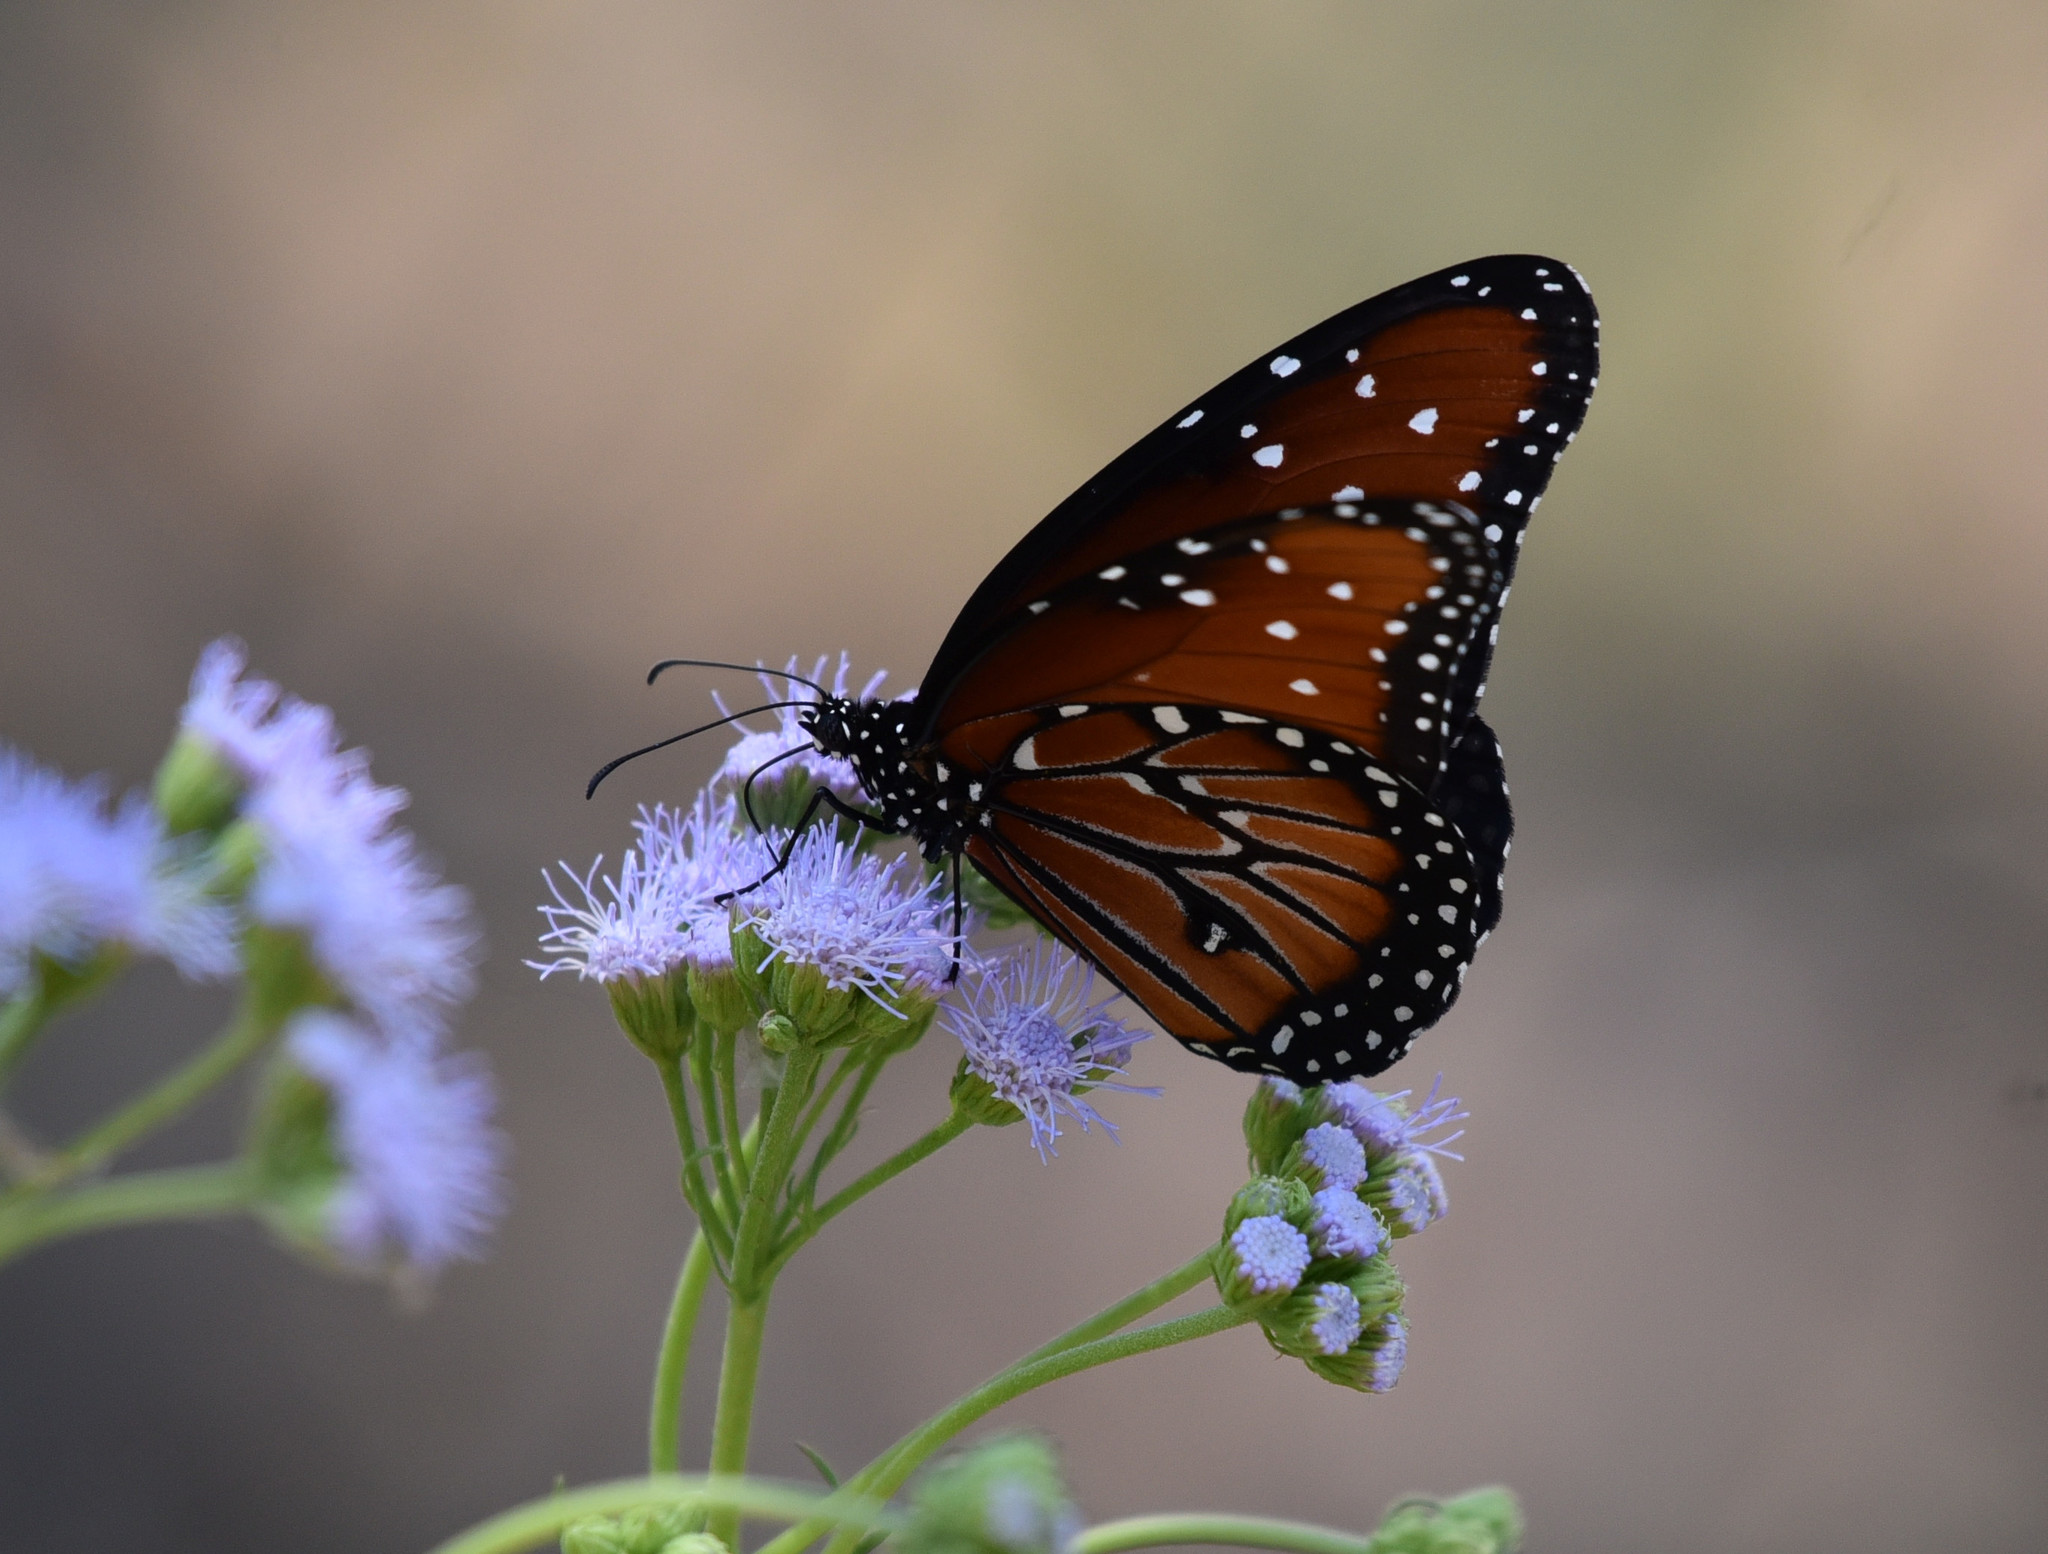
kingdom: Animalia
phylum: Arthropoda
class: Insecta
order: Lepidoptera
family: Nymphalidae
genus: Danaus
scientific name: Danaus gilippus
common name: Queen
